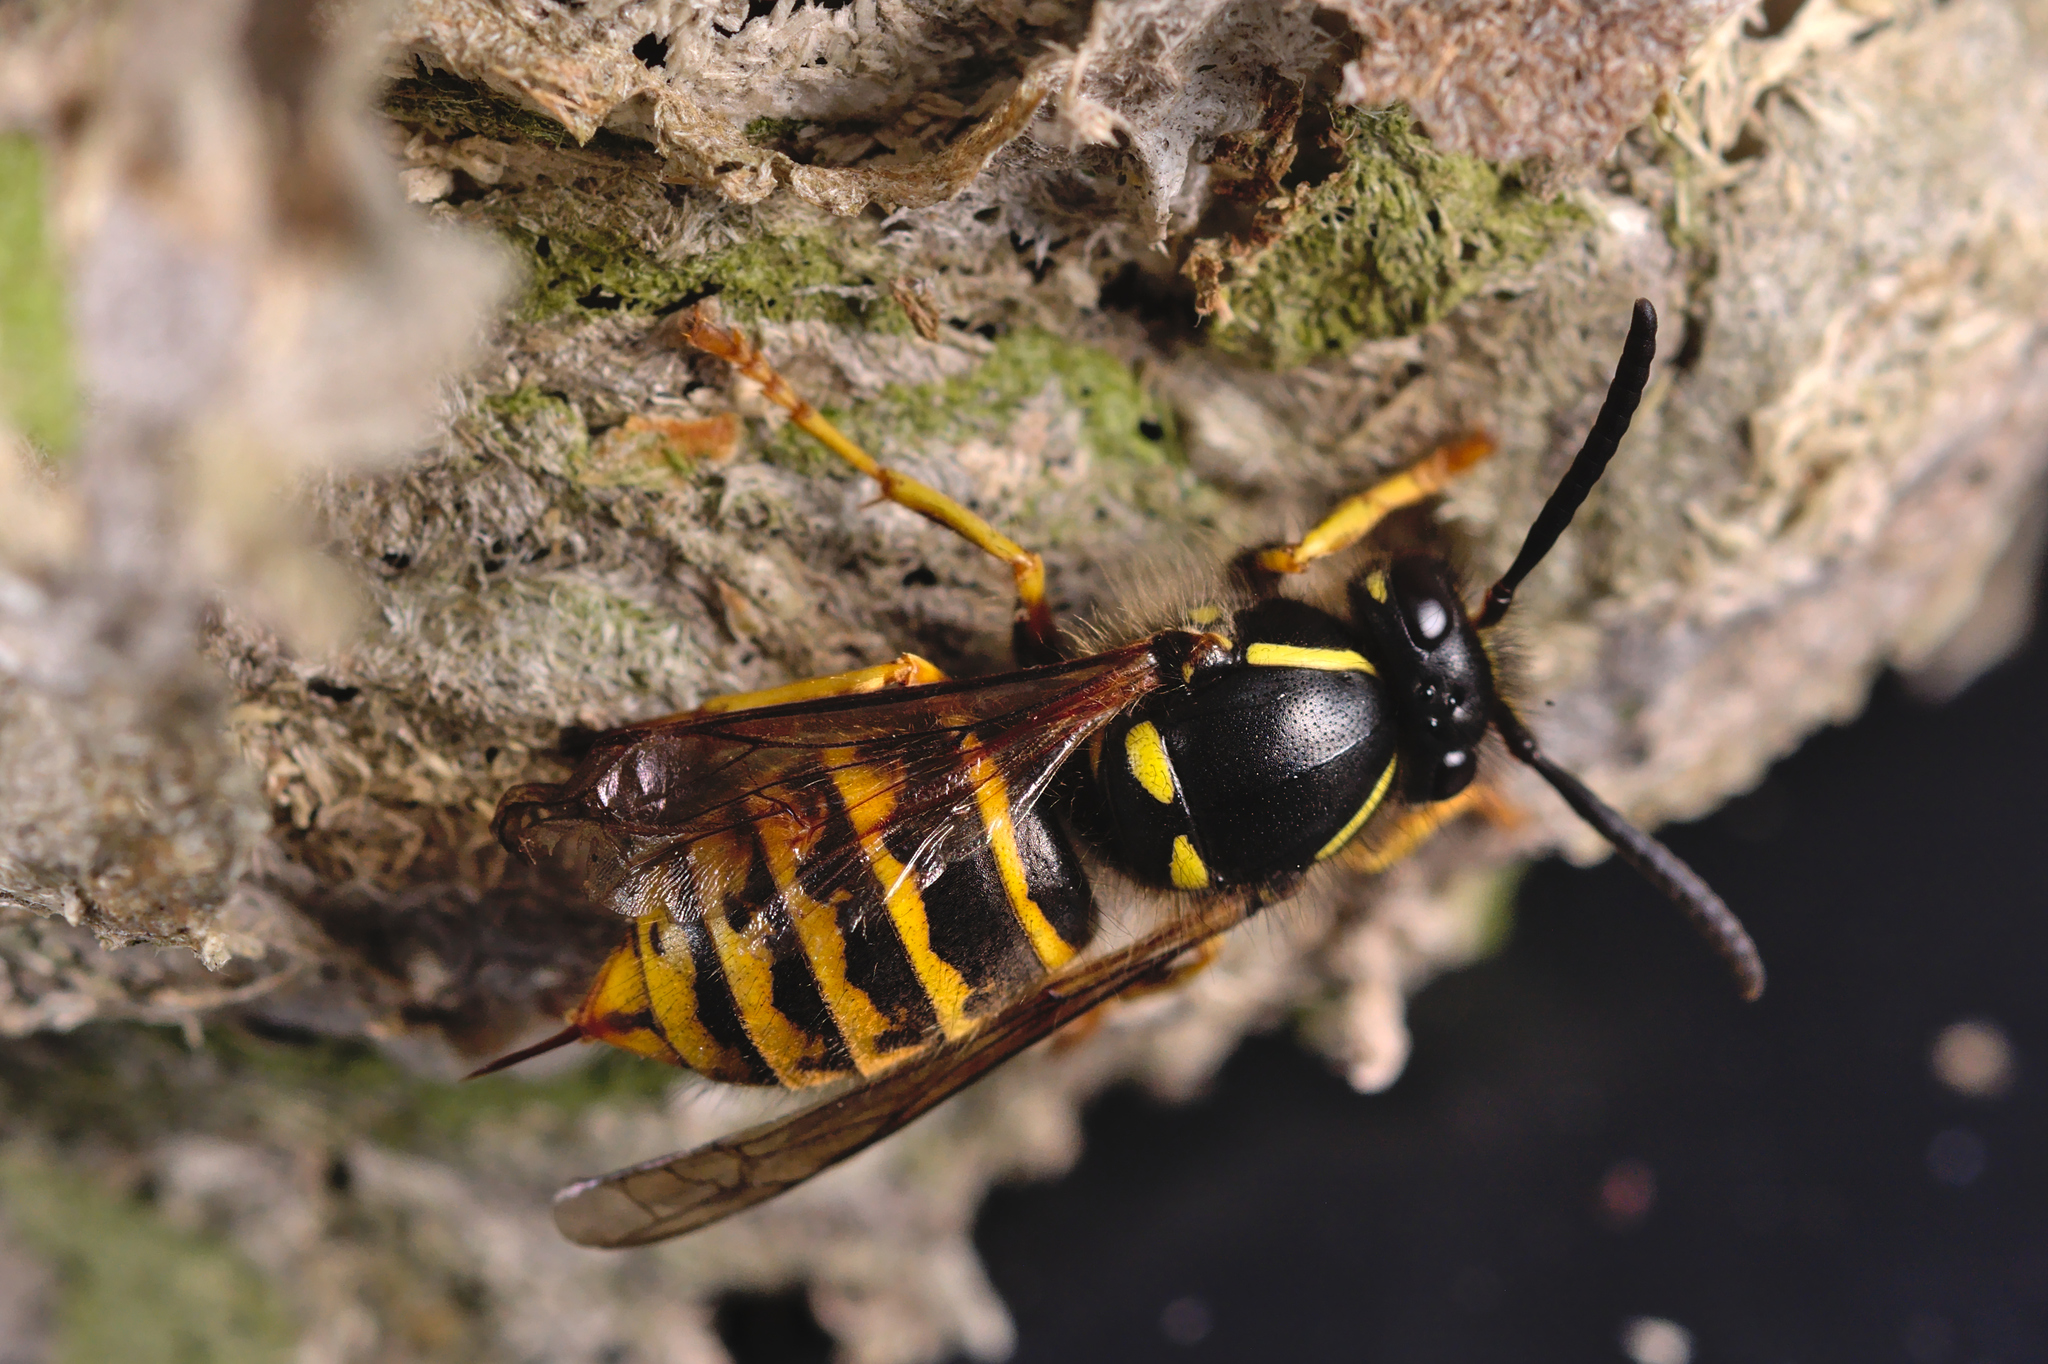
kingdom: Animalia
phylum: Arthropoda
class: Insecta
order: Hymenoptera
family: Vespidae
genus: Dolichovespula
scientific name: Dolichovespula saxonica
